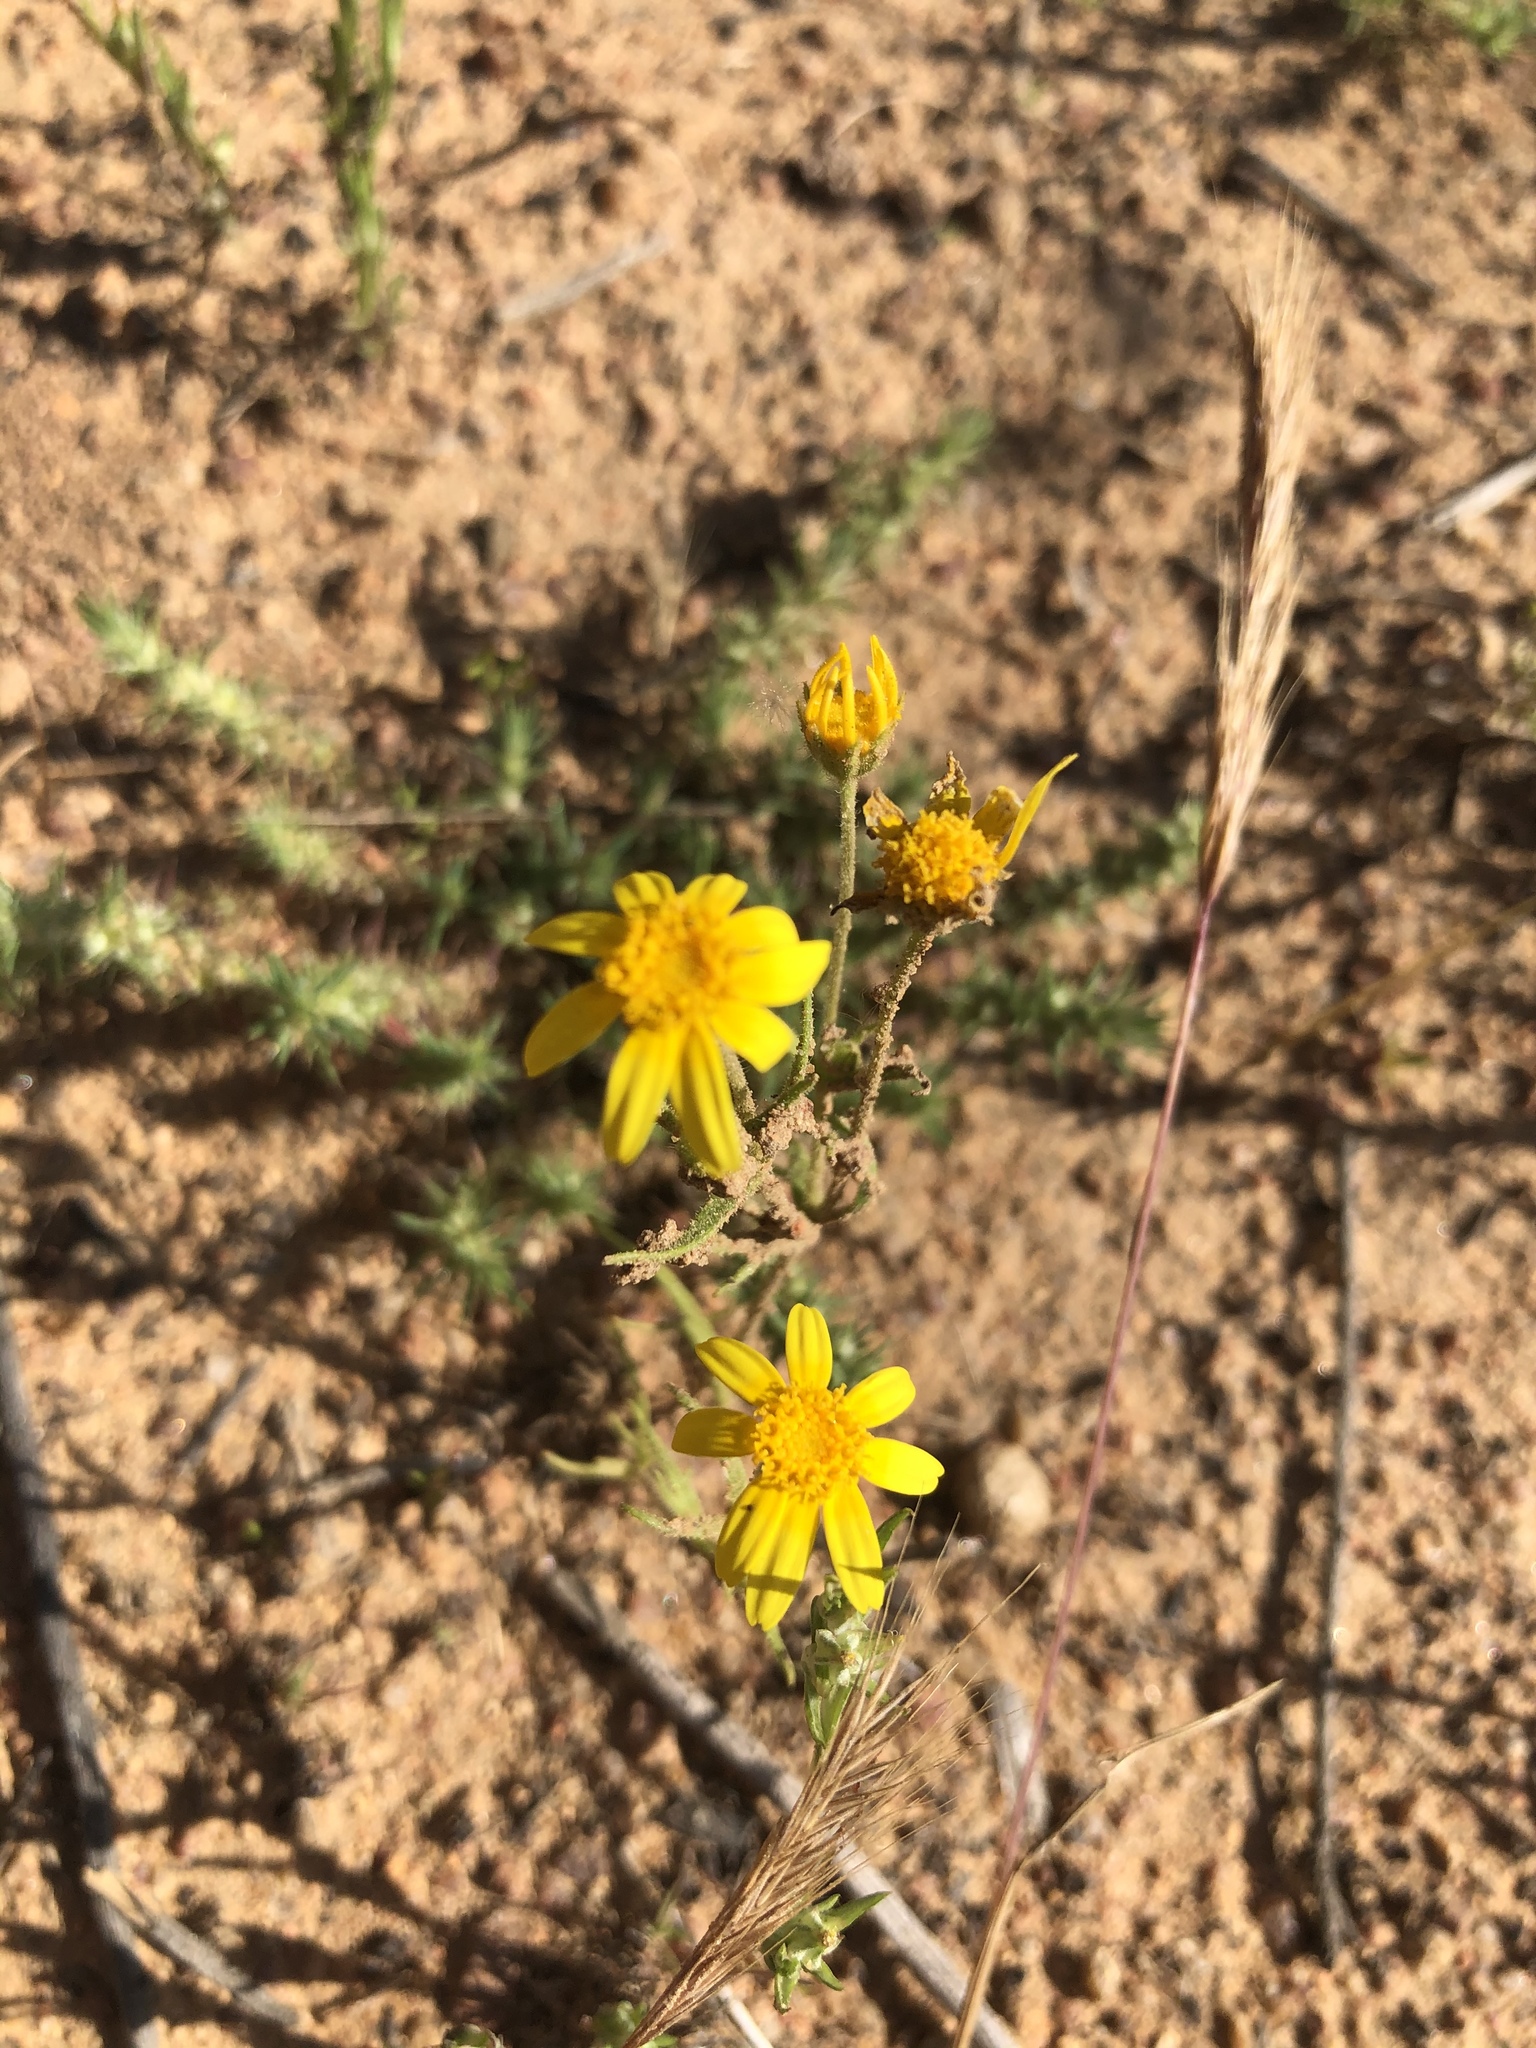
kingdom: Plantae
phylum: Tracheophyta
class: Magnoliopsida
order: Asterales
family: Asteraceae
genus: Lasthenia
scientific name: Lasthenia coronaria
